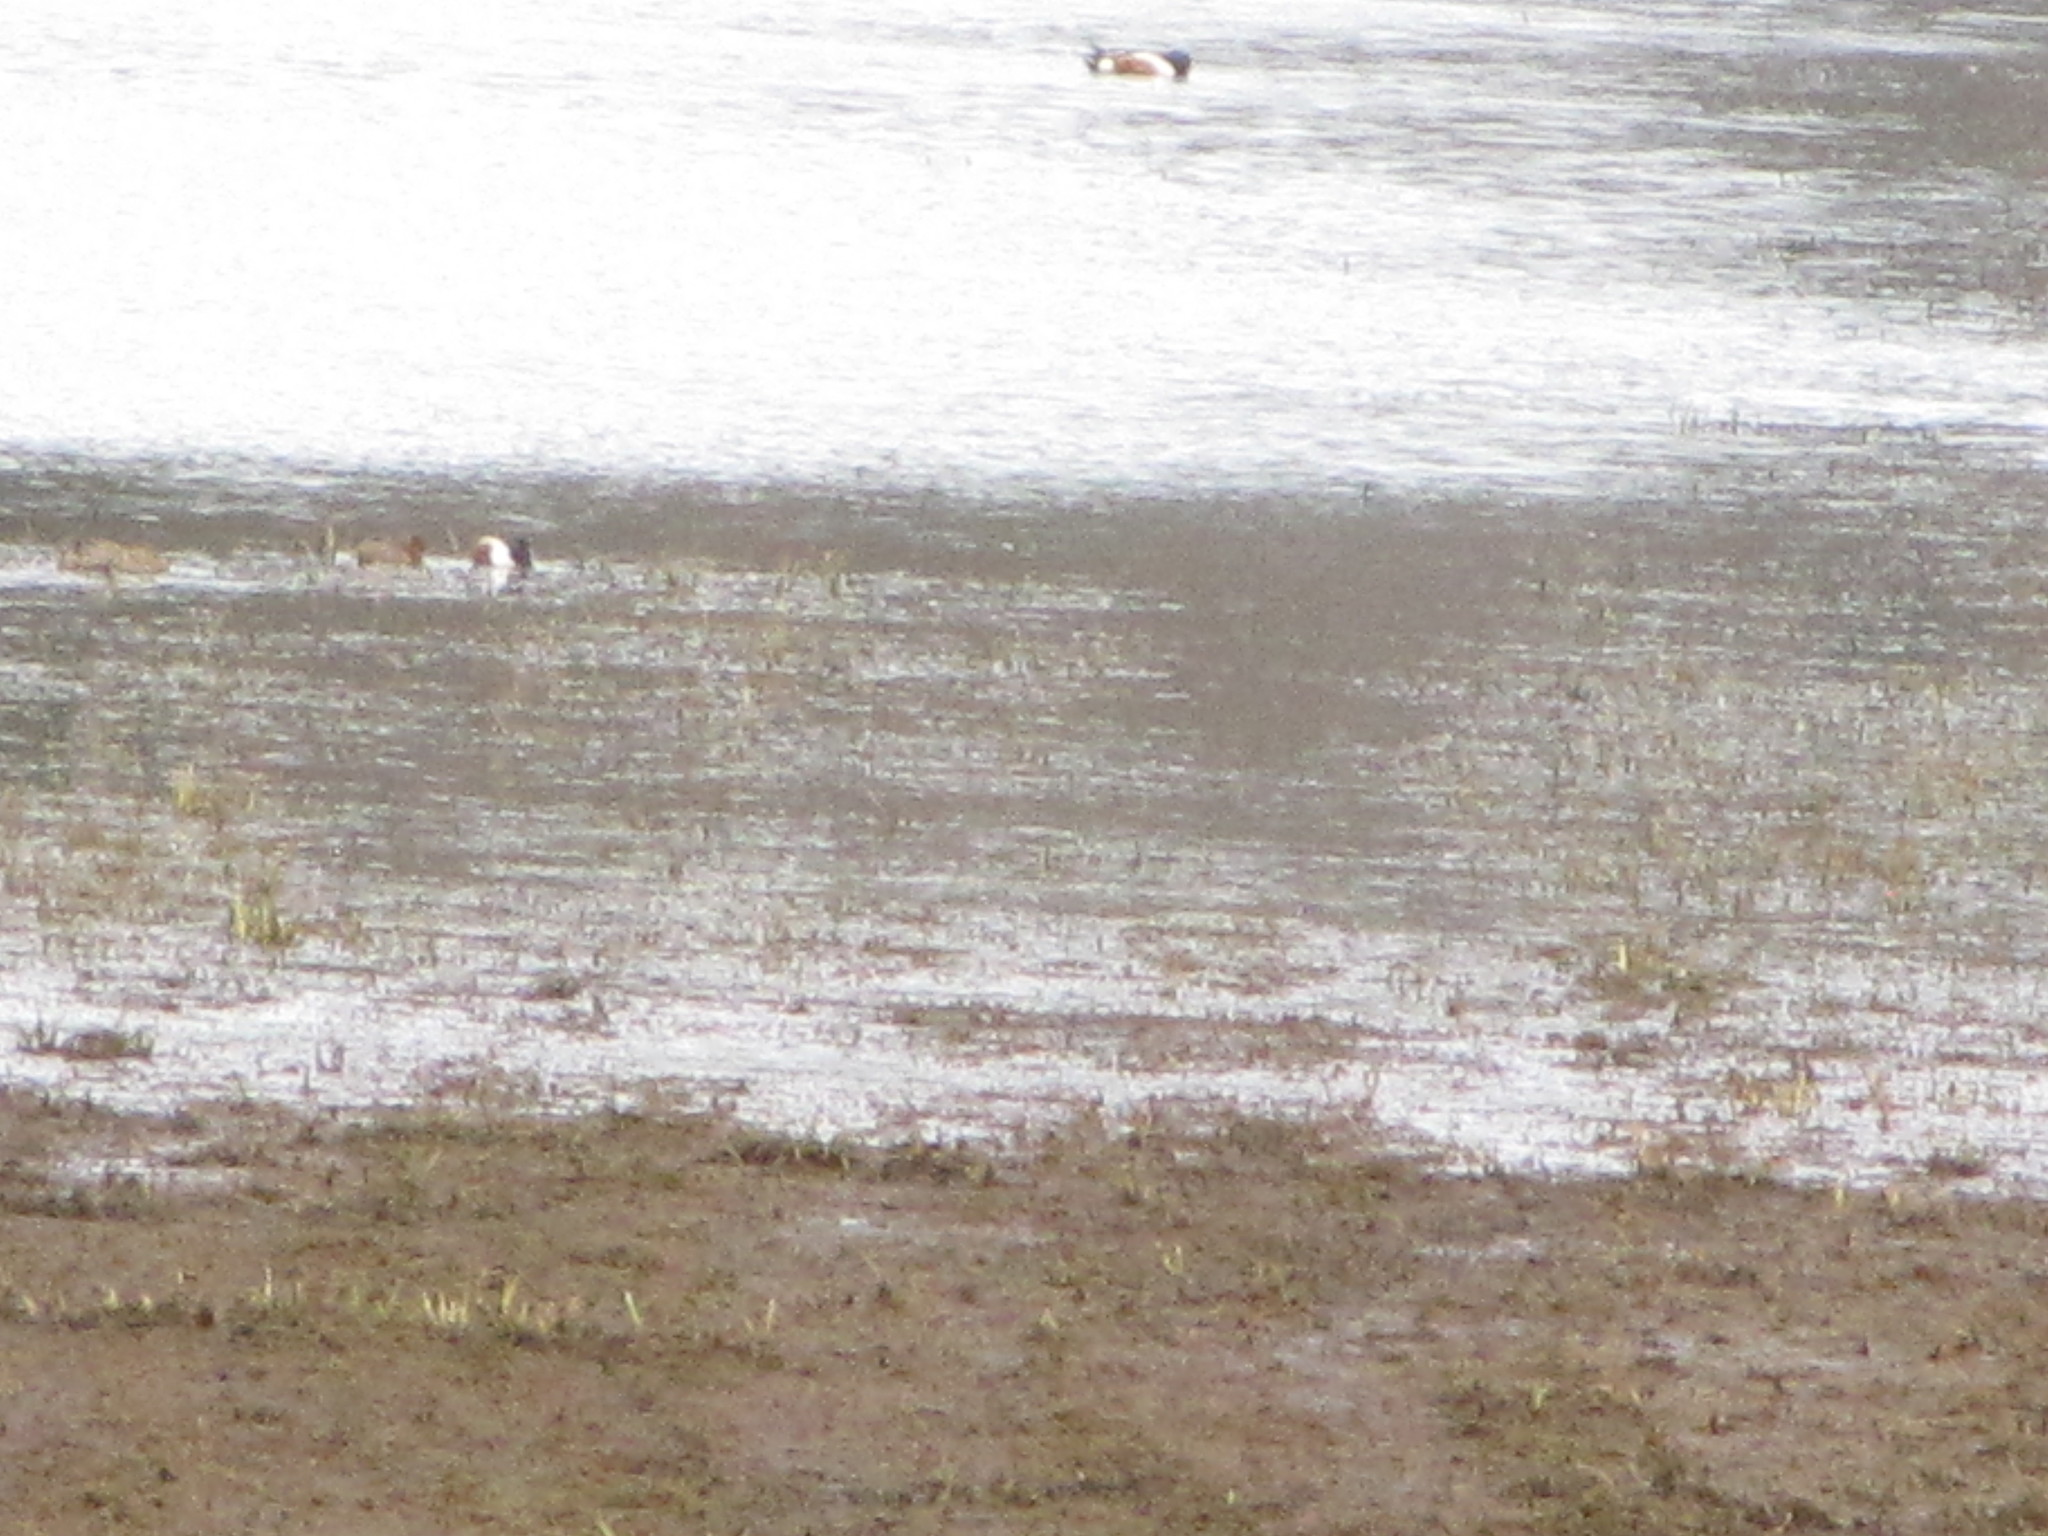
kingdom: Animalia
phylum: Chordata
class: Aves
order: Anseriformes
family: Anatidae
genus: Spatula
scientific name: Spatula clypeata
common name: Northern shoveler
